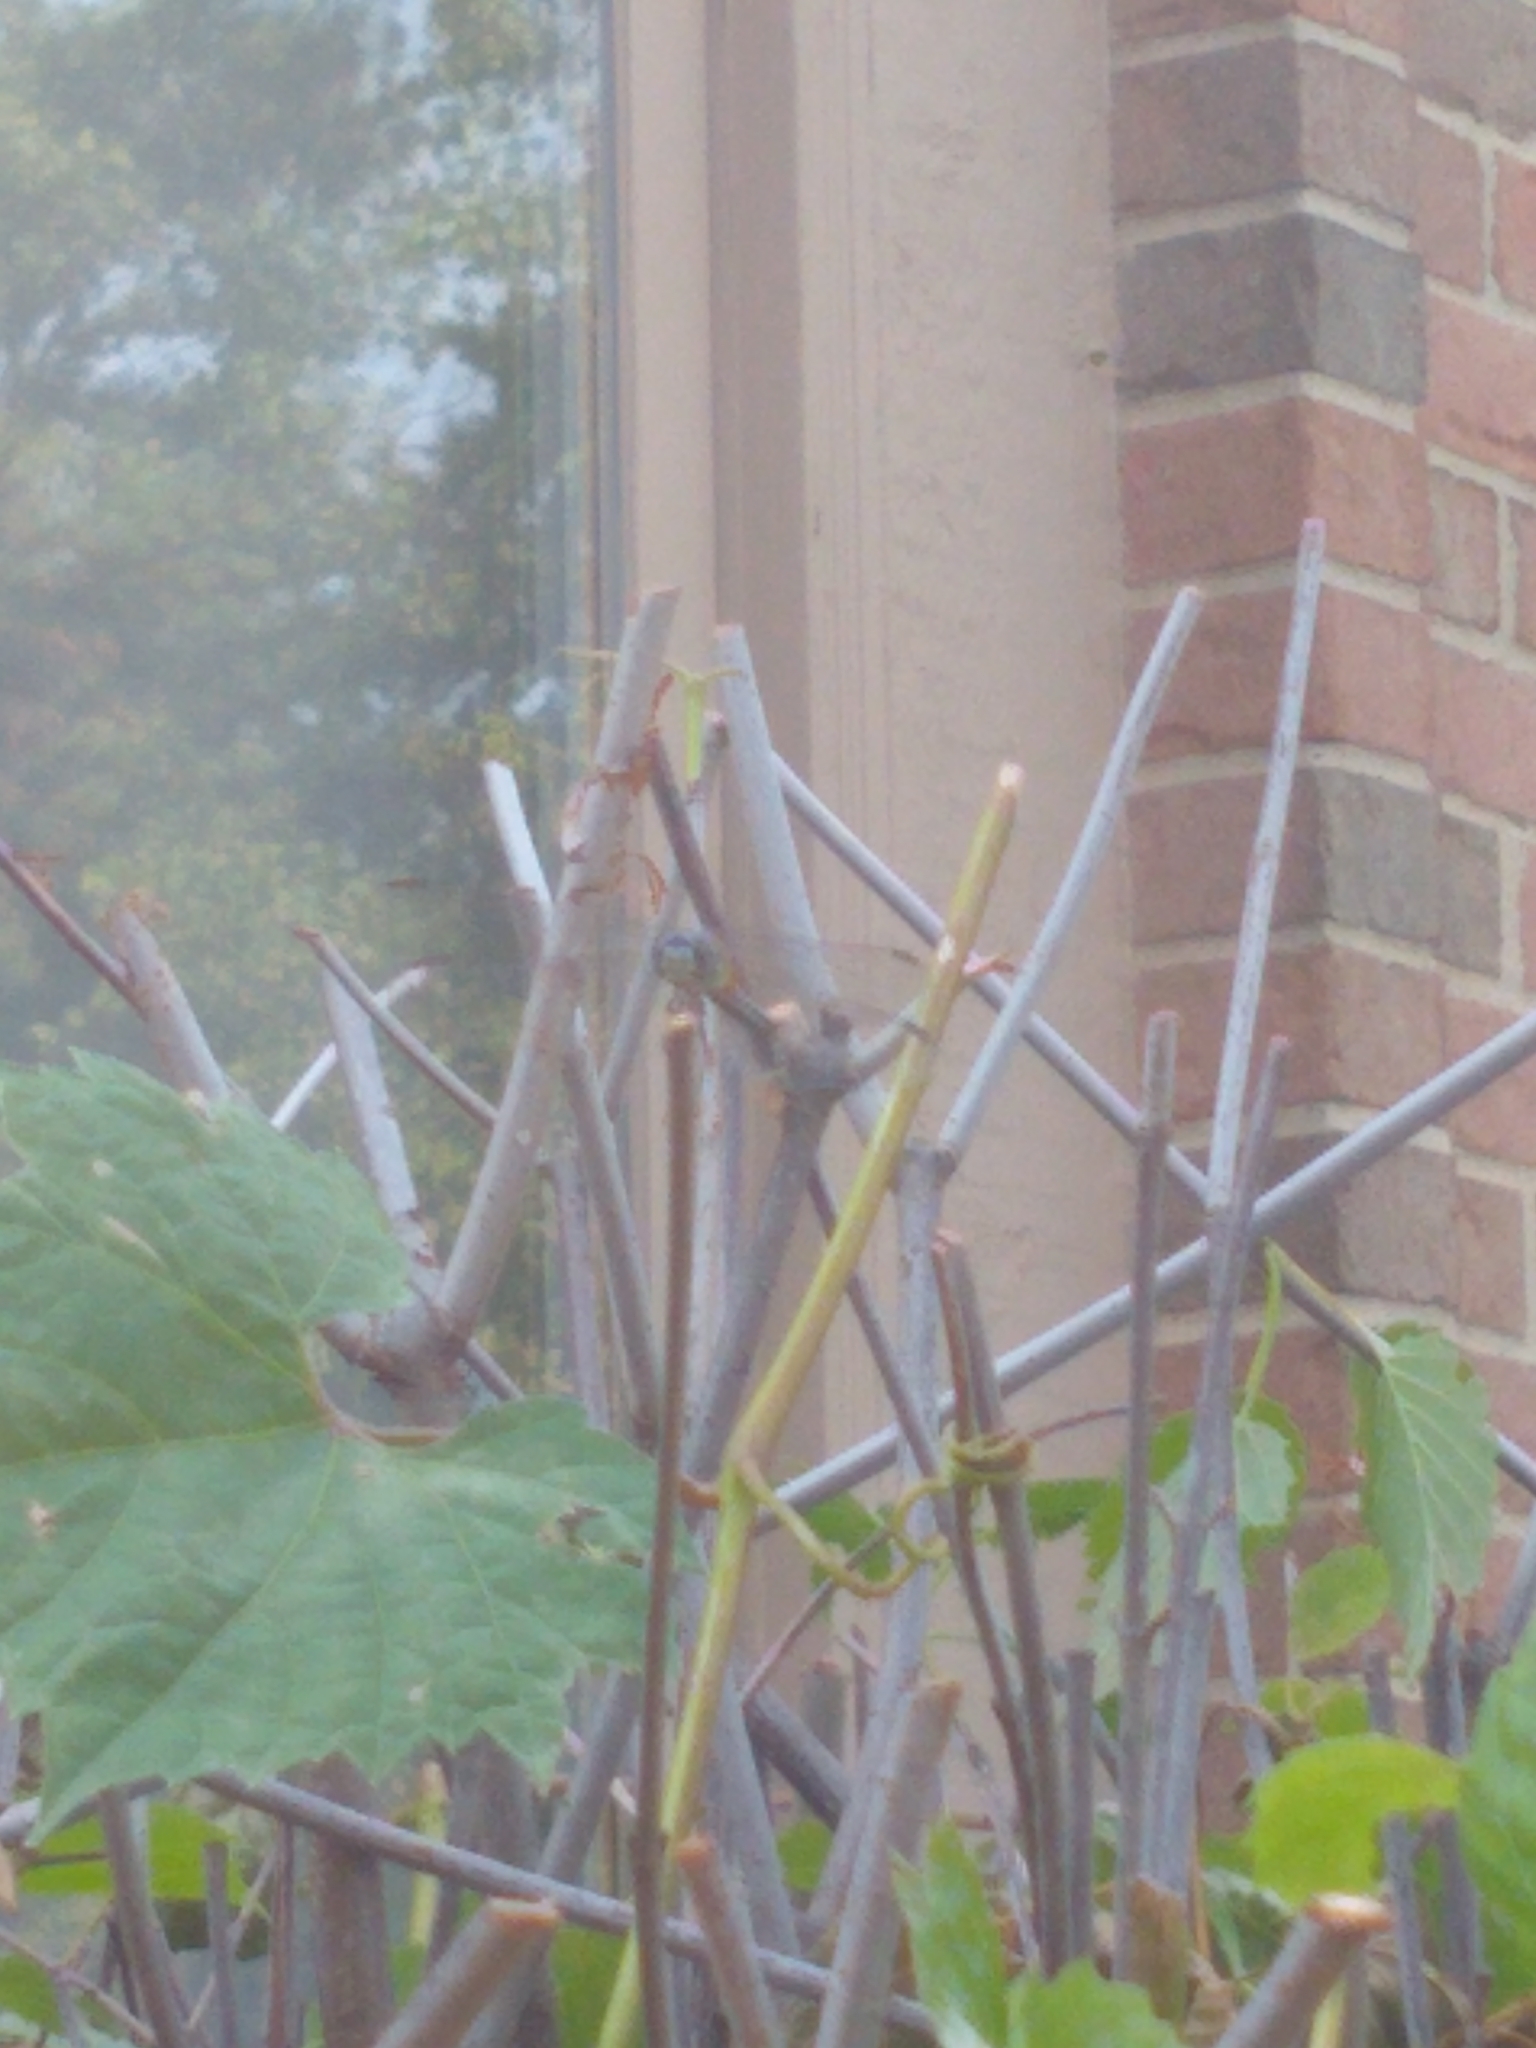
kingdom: Animalia
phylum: Arthropoda
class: Insecta
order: Odonata
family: Libellulidae
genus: Pachydiplax
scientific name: Pachydiplax longipennis
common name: Blue dasher
